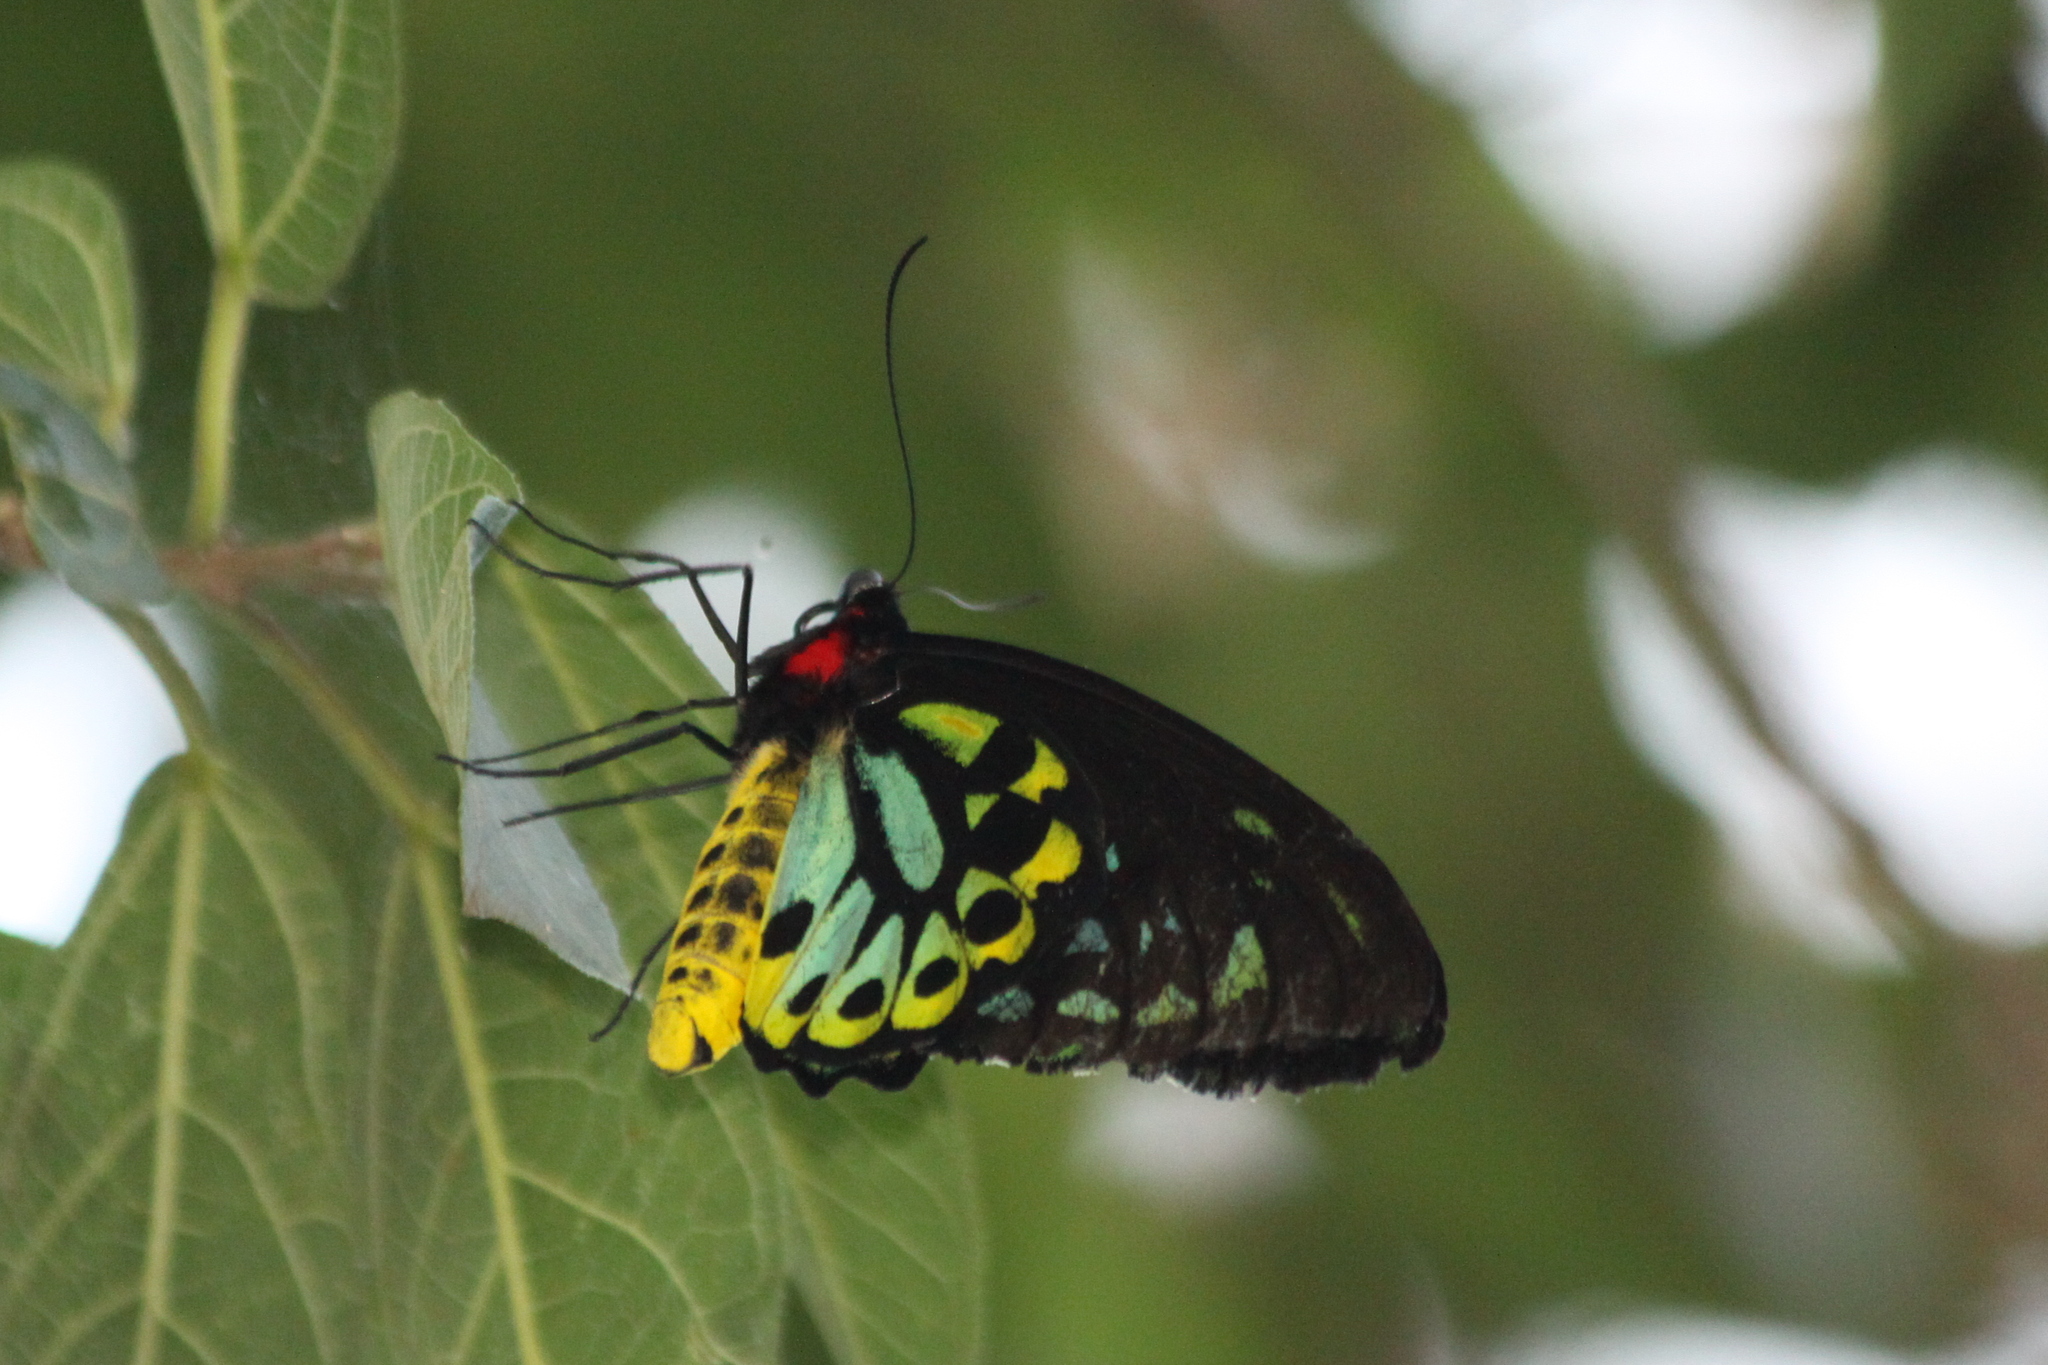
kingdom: Animalia
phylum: Arthropoda
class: Insecta
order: Lepidoptera
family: Papilionidae
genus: Ornithoptera
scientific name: Ornithoptera euphorion
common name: Cairns birdwing
